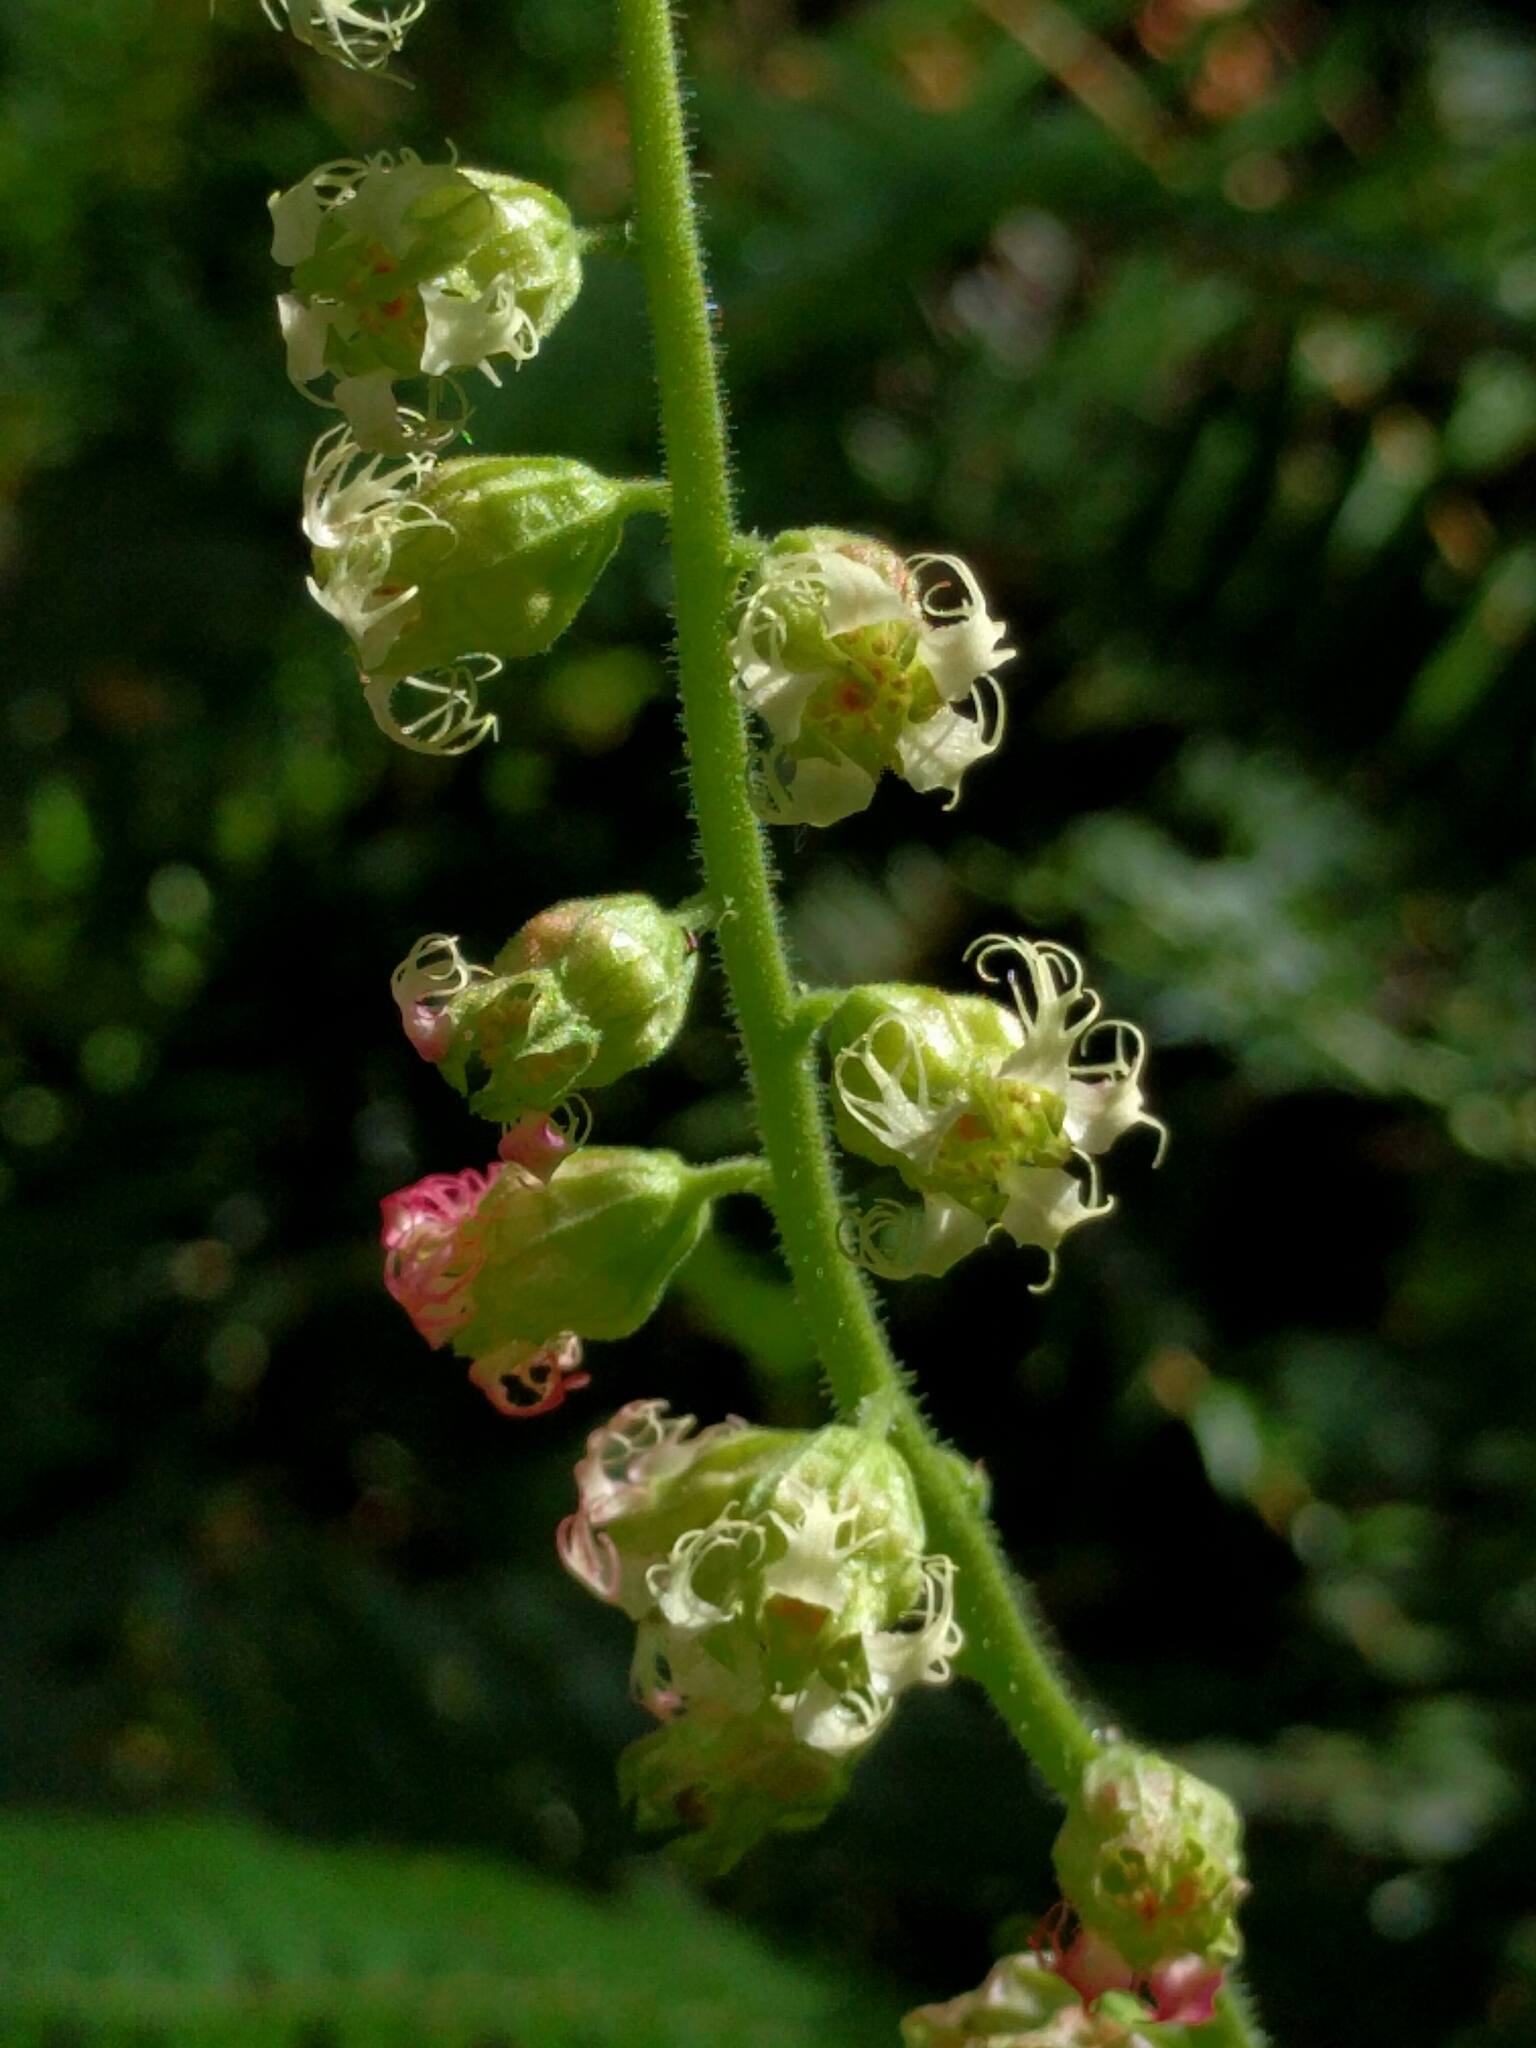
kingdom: Plantae
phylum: Tracheophyta
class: Magnoliopsida
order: Saxifragales
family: Saxifragaceae
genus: Tellima
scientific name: Tellima grandiflora
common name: Fringecups
